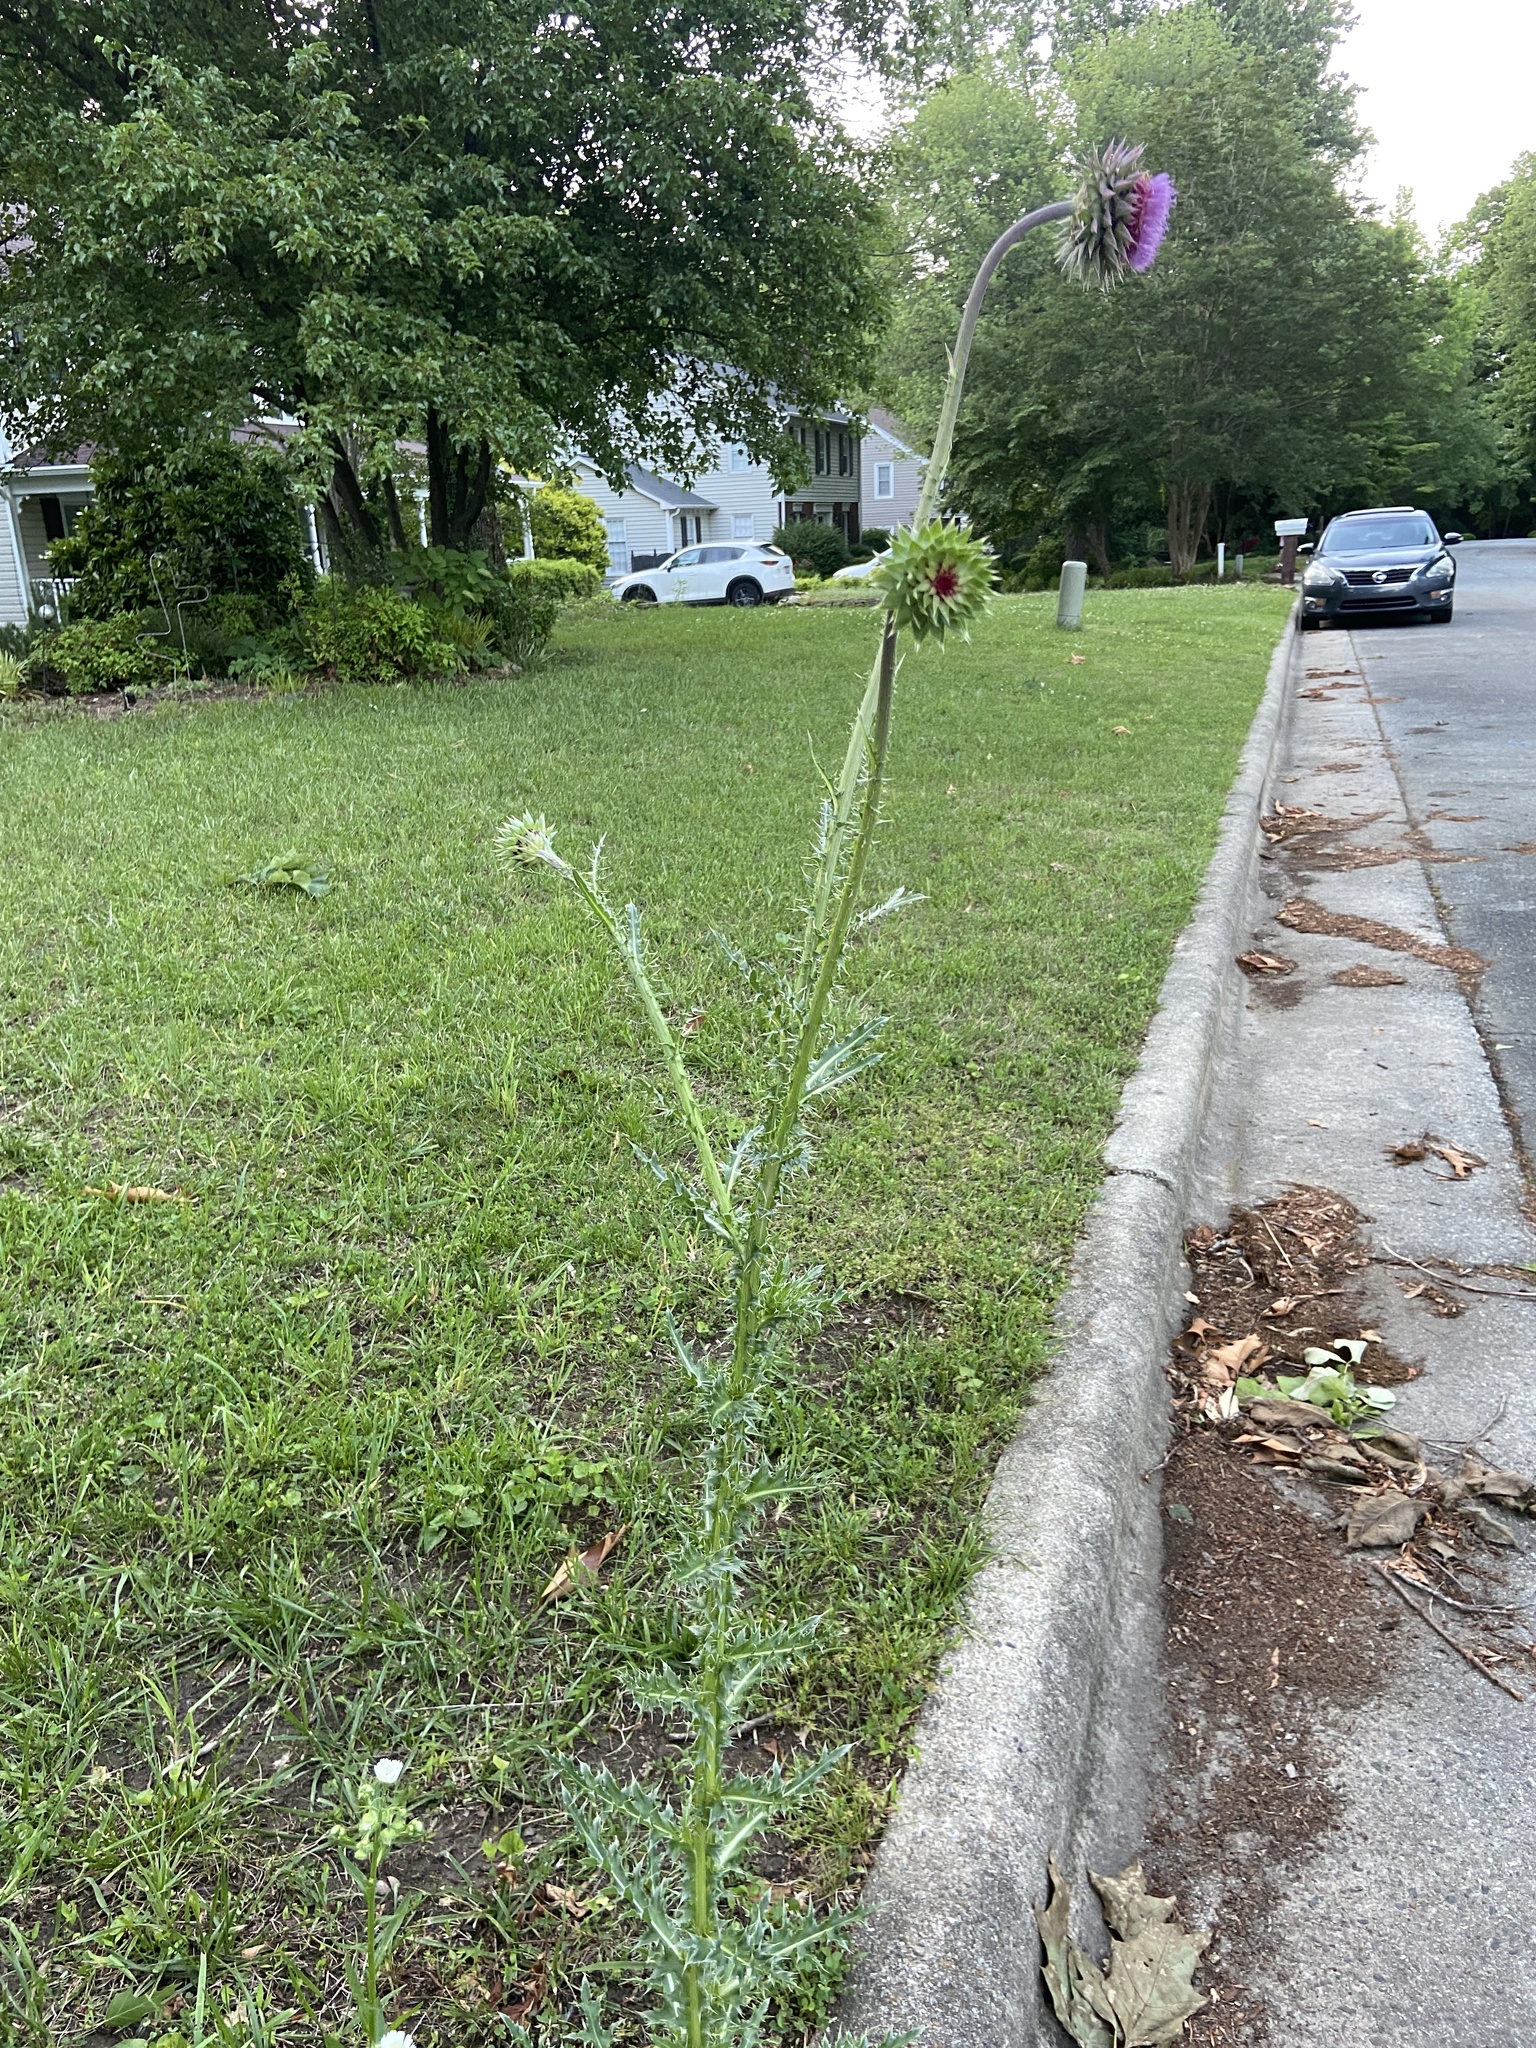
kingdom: Plantae
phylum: Tracheophyta
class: Magnoliopsida
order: Asterales
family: Asteraceae
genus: Carduus
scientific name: Carduus nutans
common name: Musk thistle
